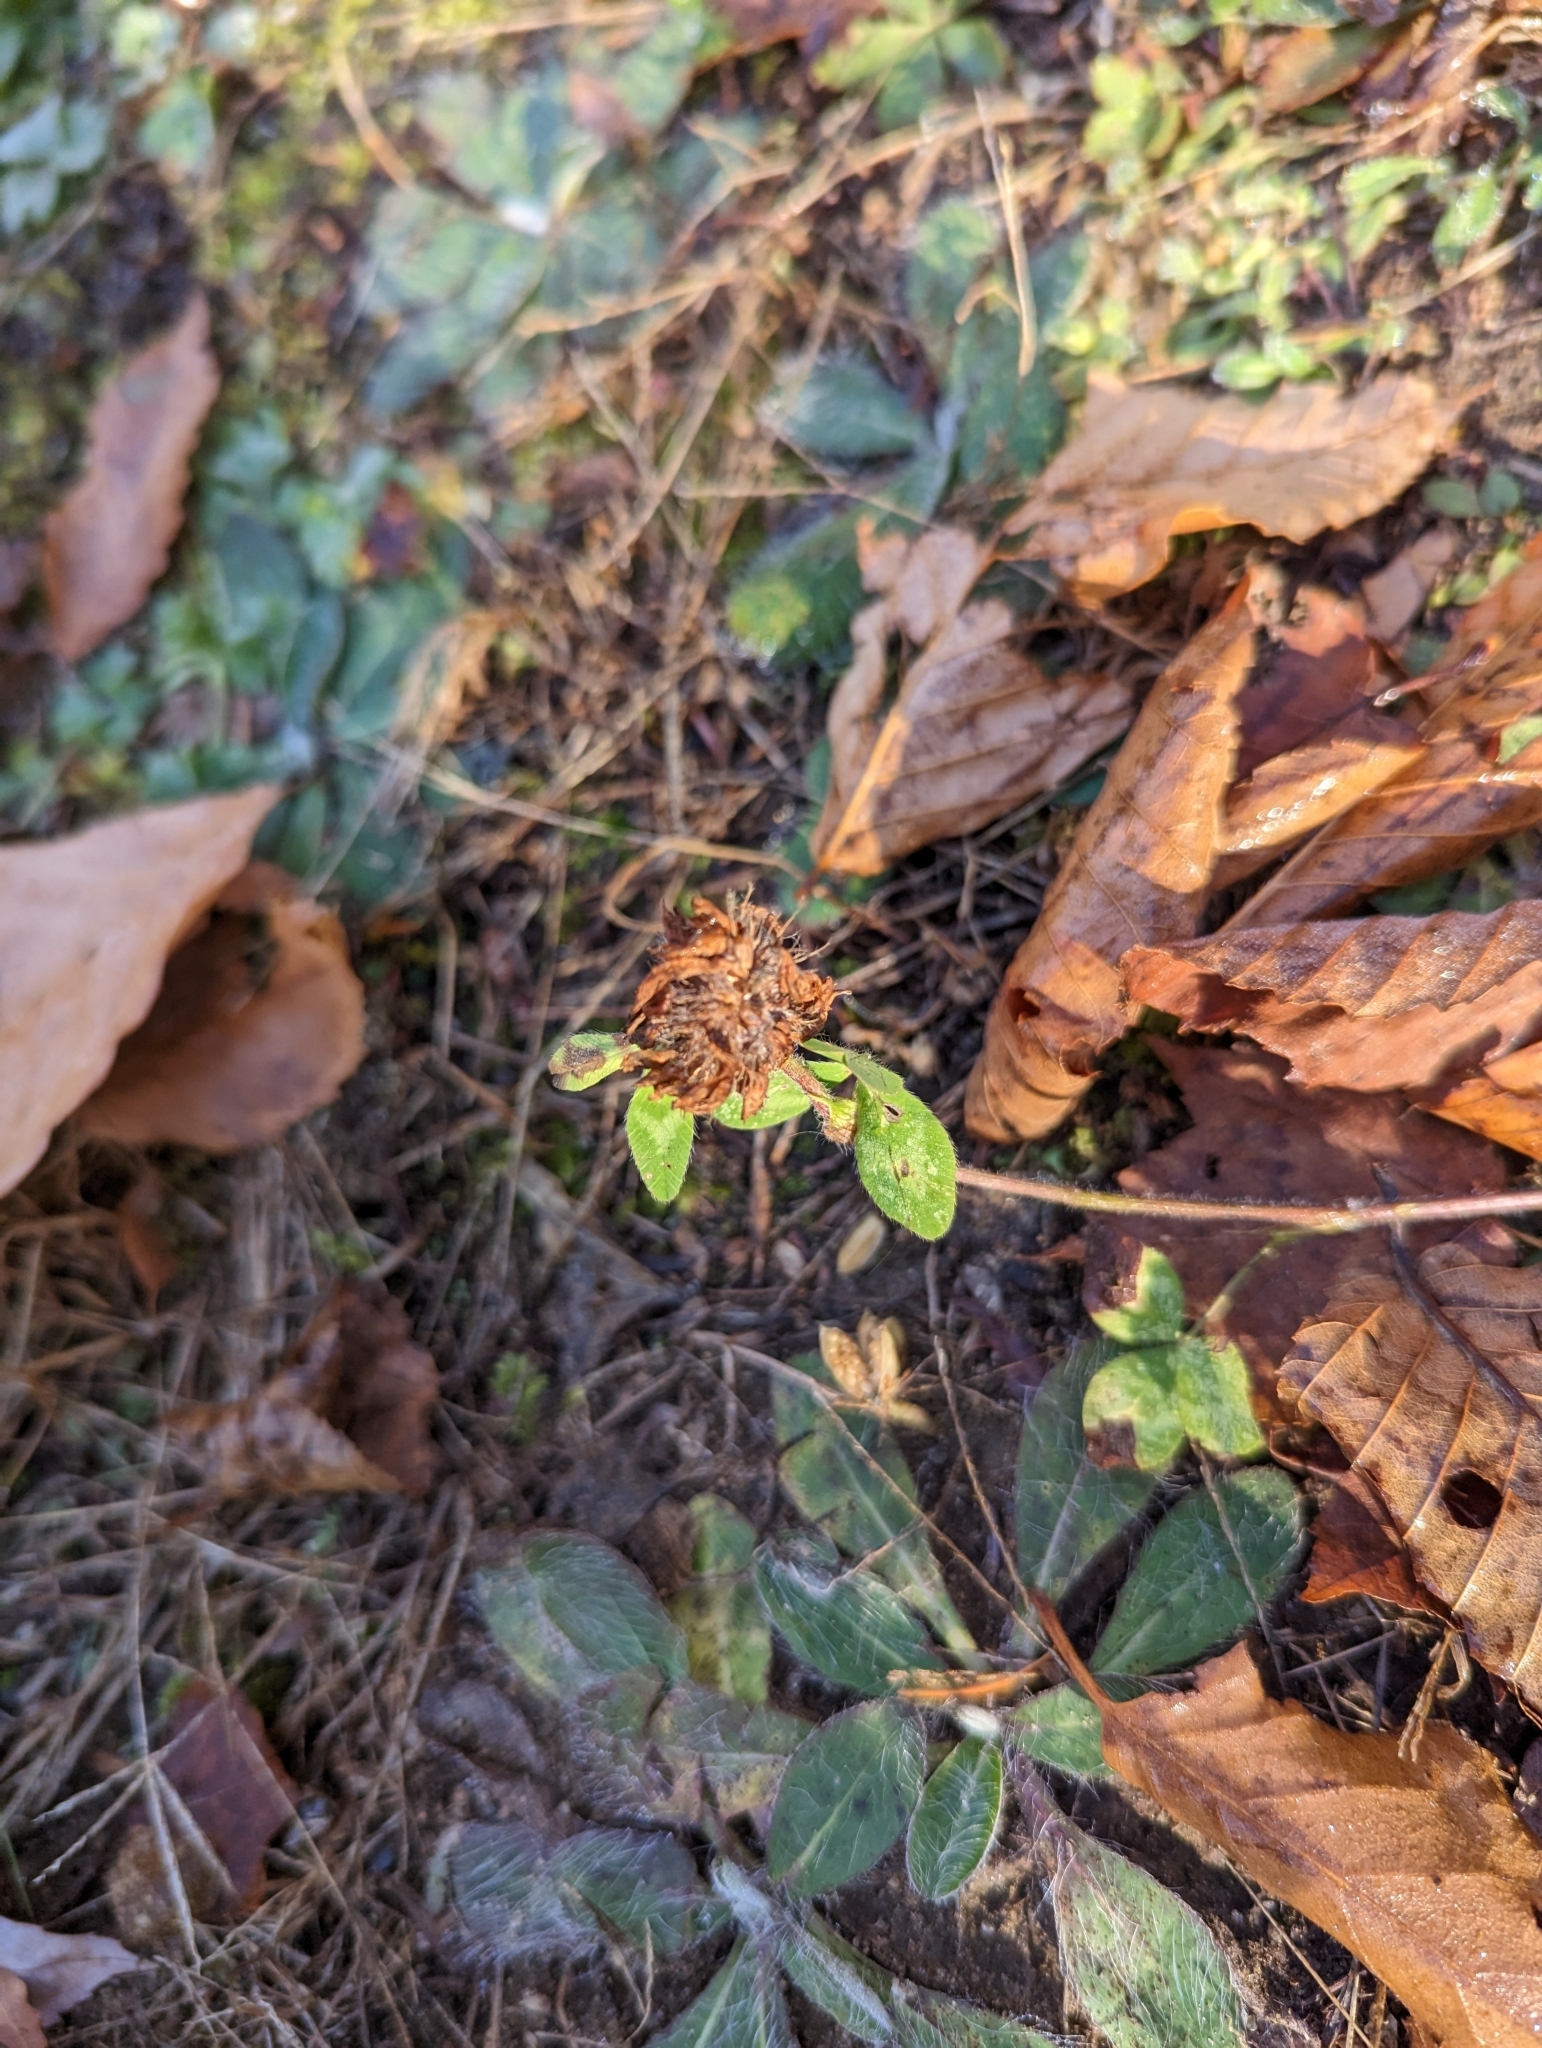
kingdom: Plantae
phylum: Tracheophyta
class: Magnoliopsida
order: Fabales
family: Fabaceae
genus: Trifolium
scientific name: Trifolium pratense
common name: Red clover
